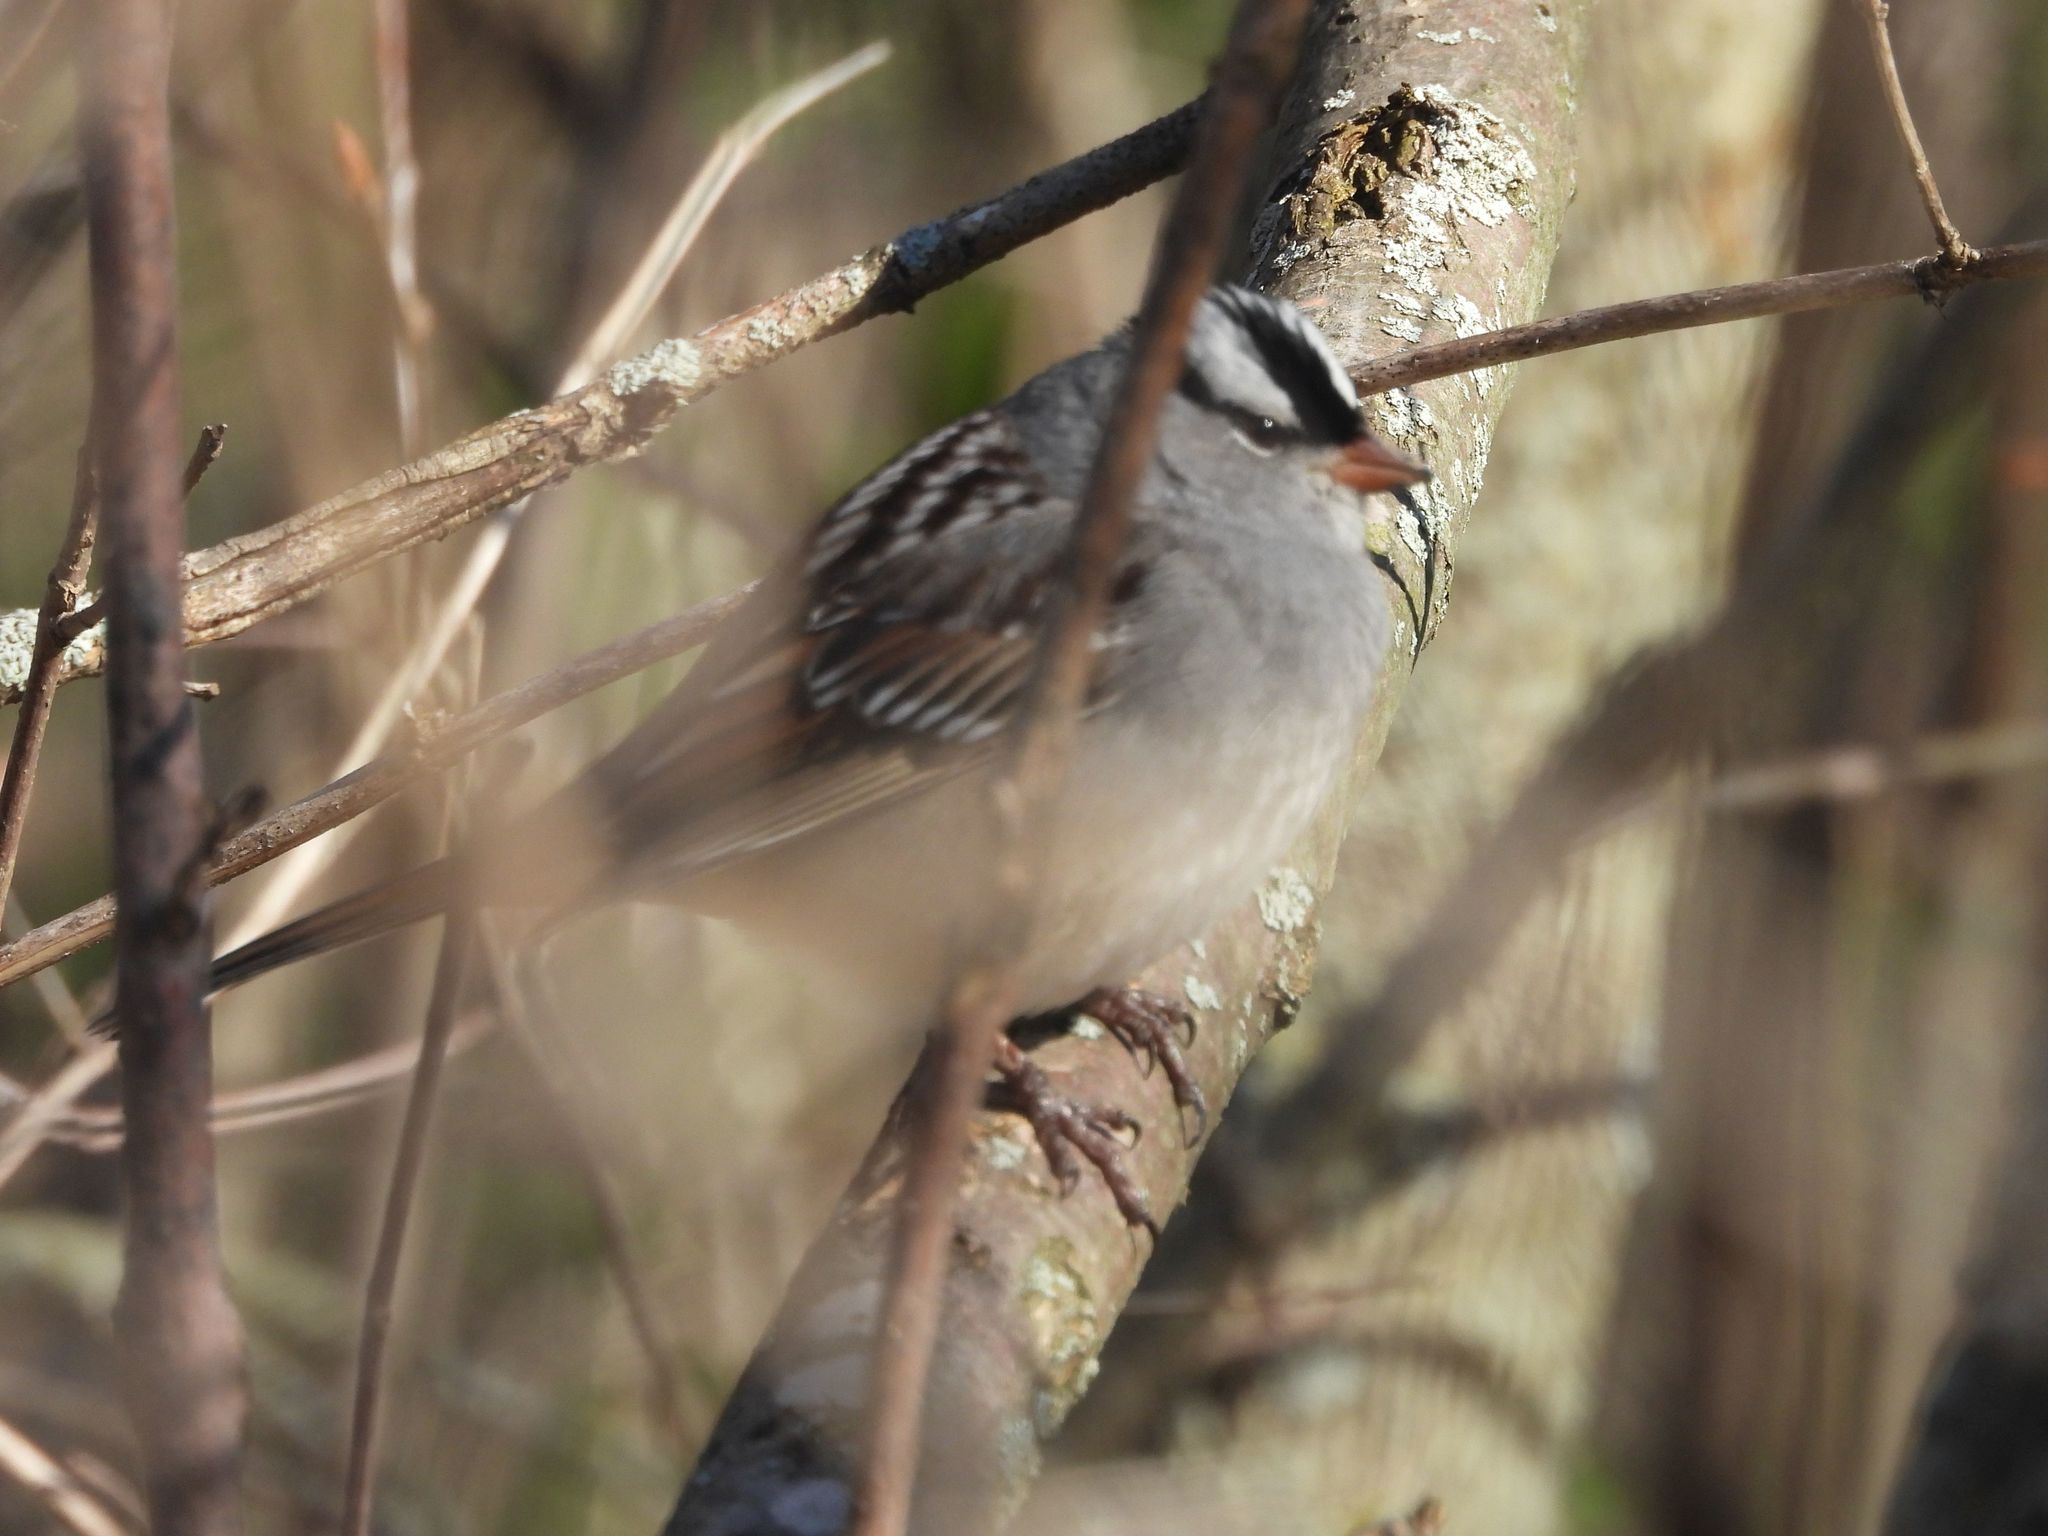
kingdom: Animalia
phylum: Chordata
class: Aves
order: Passeriformes
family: Passerellidae
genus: Zonotrichia
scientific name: Zonotrichia leucophrys
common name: White-crowned sparrow
